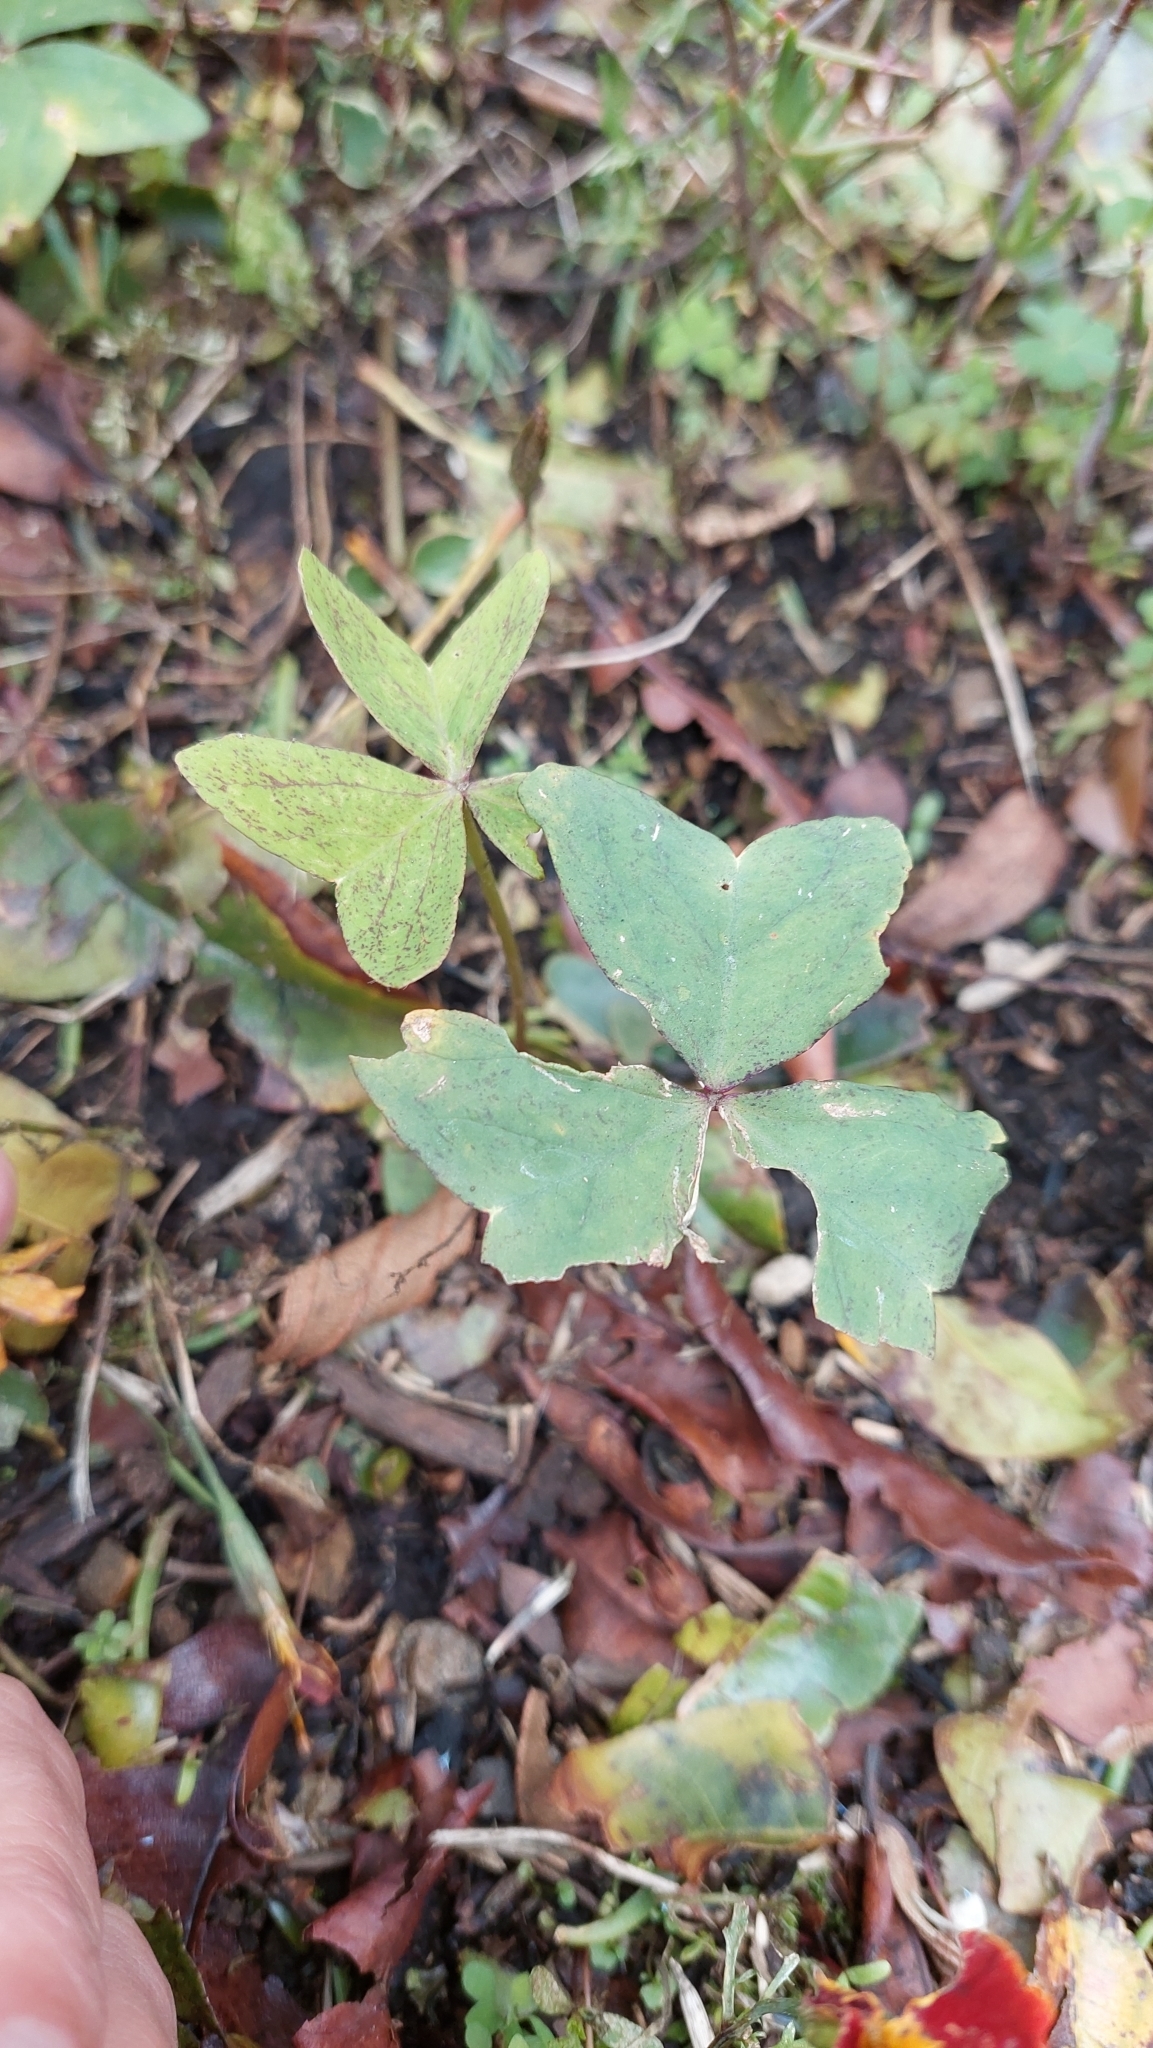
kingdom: Plantae
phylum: Tracheophyta
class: Magnoliopsida
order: Oxalidales
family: Oxalidaceae
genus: Oxalis
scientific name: Oxalis latifolia
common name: Garden pink-sorrel
